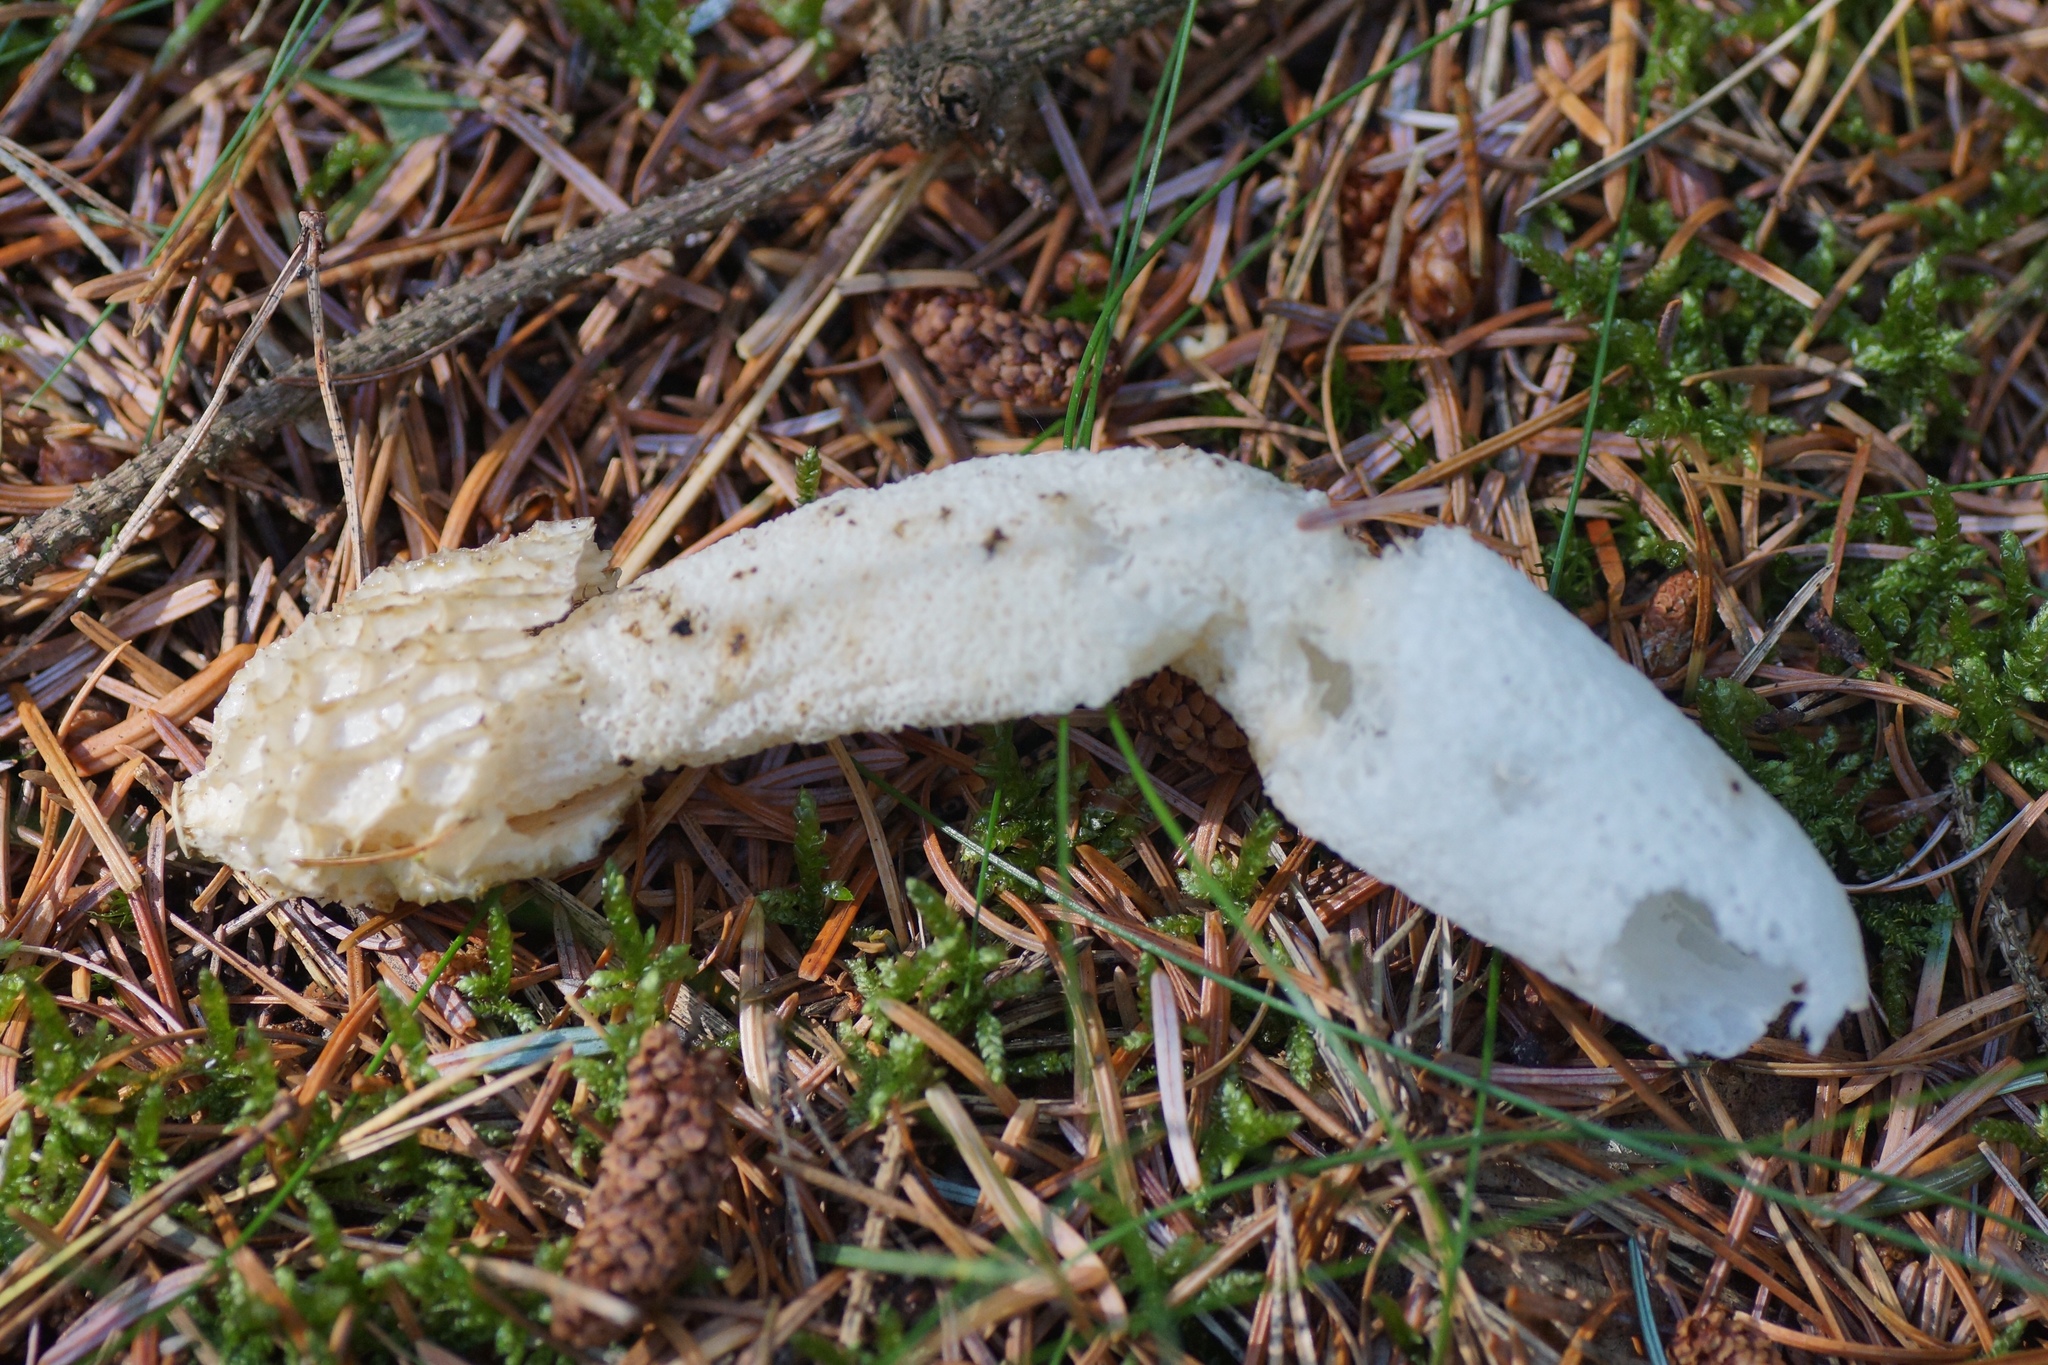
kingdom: Fungi
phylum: Basidiomycota
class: Agaricomycetes
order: Phallales
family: Phallaceae
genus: Phallus
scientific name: Phallus impudicus
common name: Common stinkhorn
